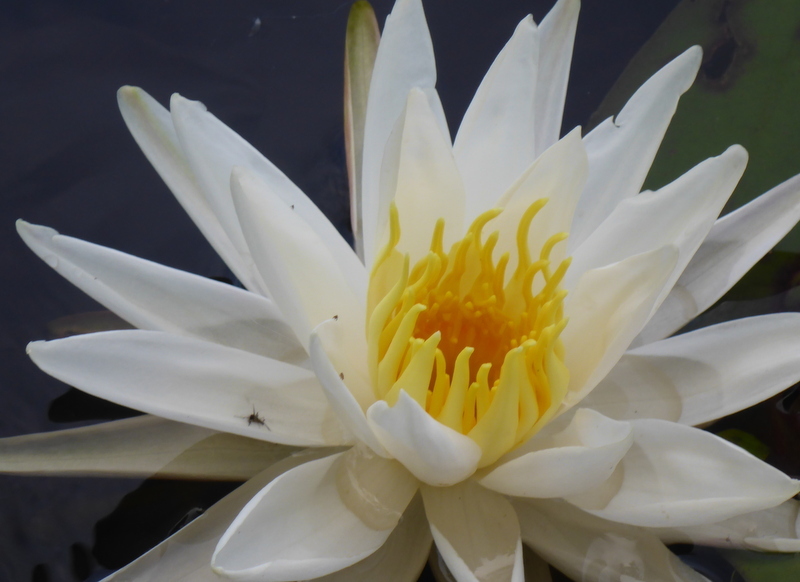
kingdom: Plantae
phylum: Tracheophyta
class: Magnoliopsida
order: Nymphaeales
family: Nymphaeaceae
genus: Nymphaea
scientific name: Nymphaea odorata
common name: Fragrant water-lily
